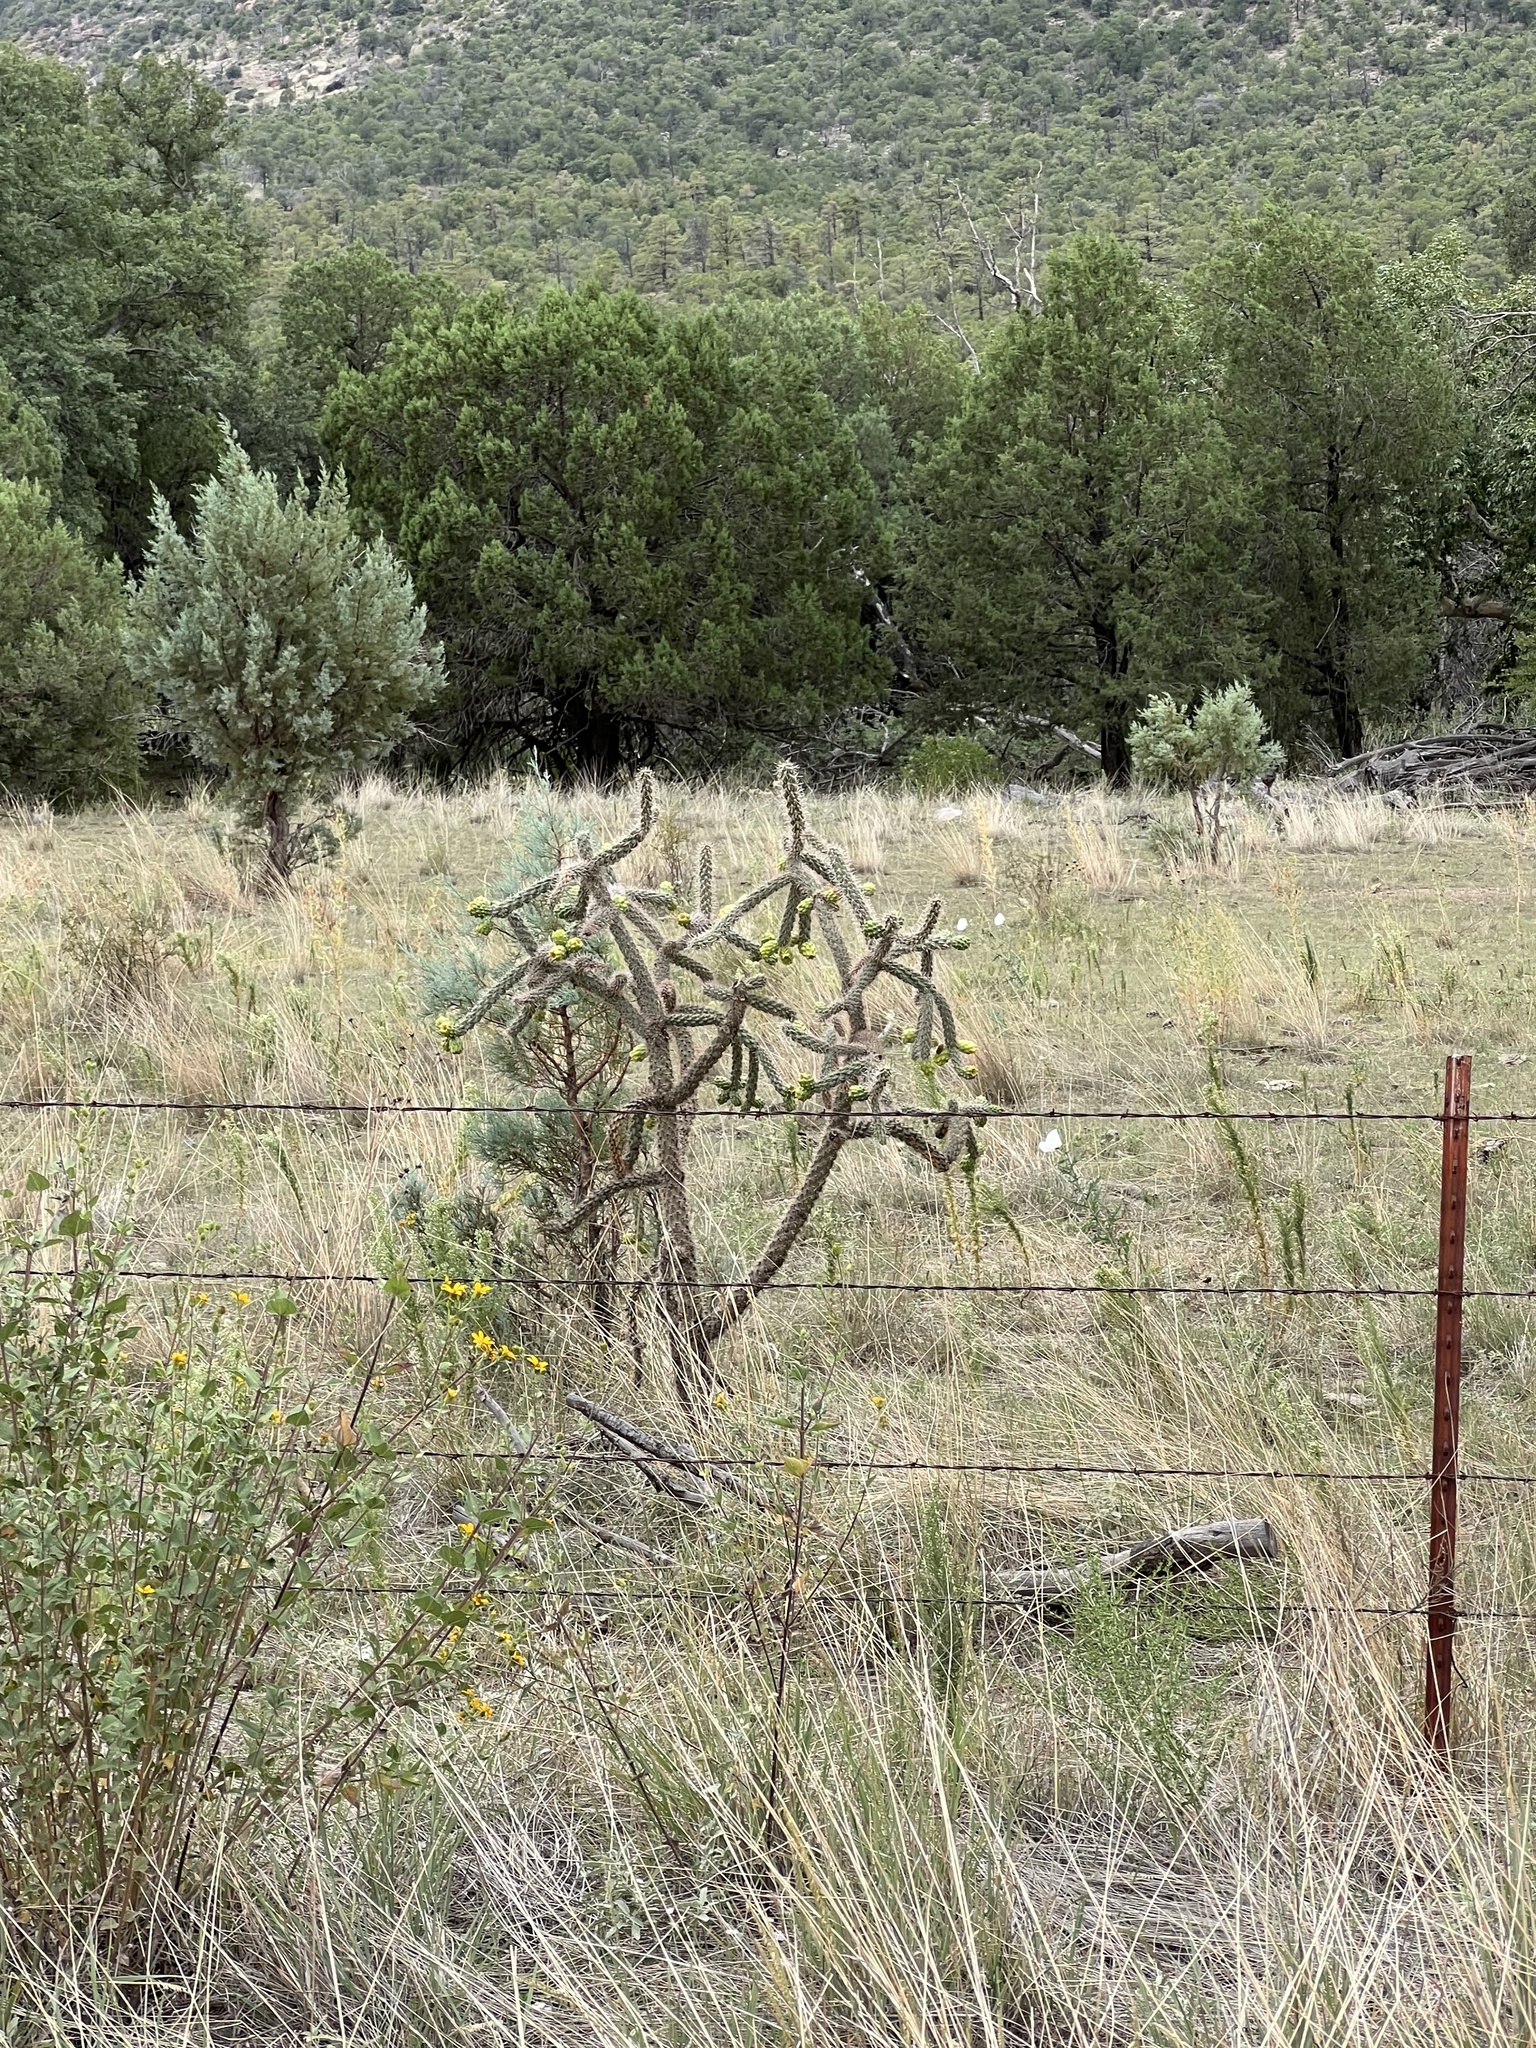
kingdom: Plantae
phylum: Tracheophyta
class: Magnoliopsida
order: Caryophyllales
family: Cactaceae
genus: Cylindropuntia
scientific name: Cylindropuntia imbricata
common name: Candelabrum cactus
